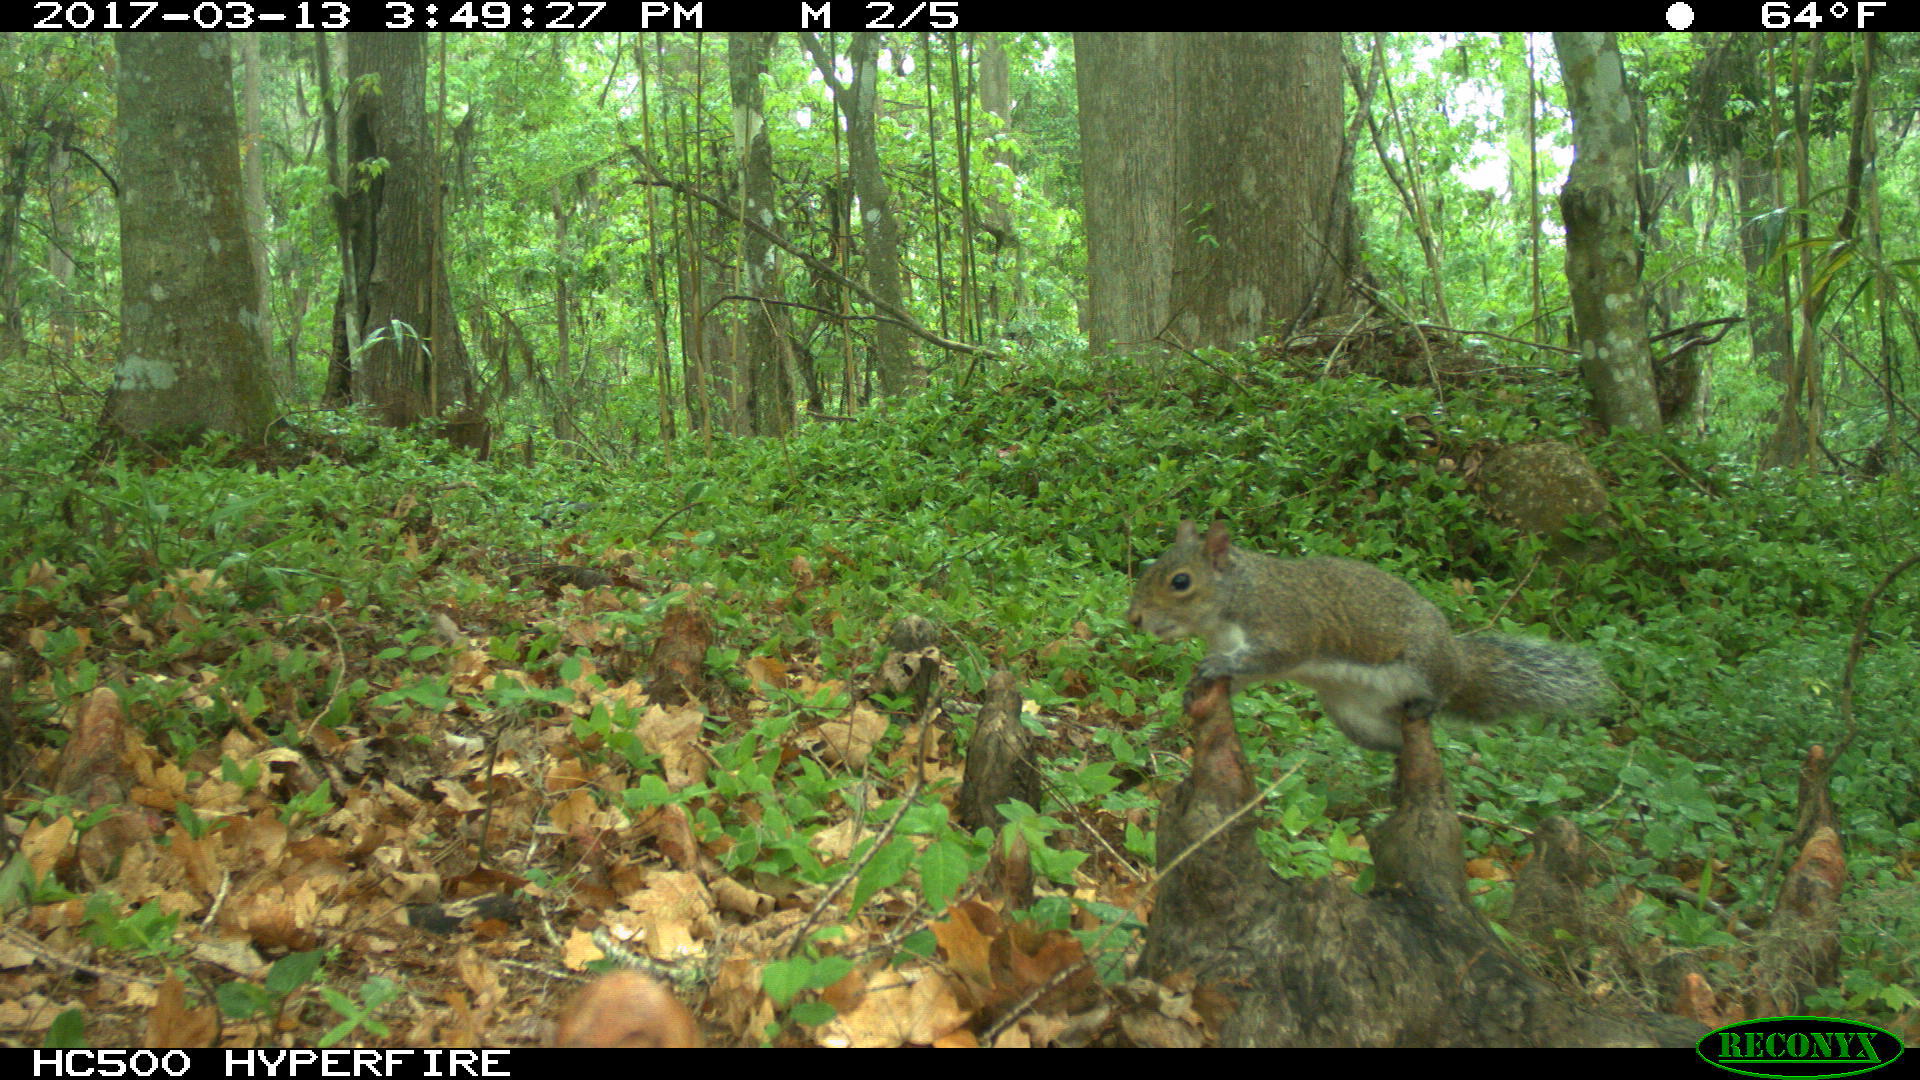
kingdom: Animalia
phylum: Chordata
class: Mammalia
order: Rodentia
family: Sciuridae
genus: Sciurus
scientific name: Sciurus carolinensis
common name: Eastern gray squirrel
